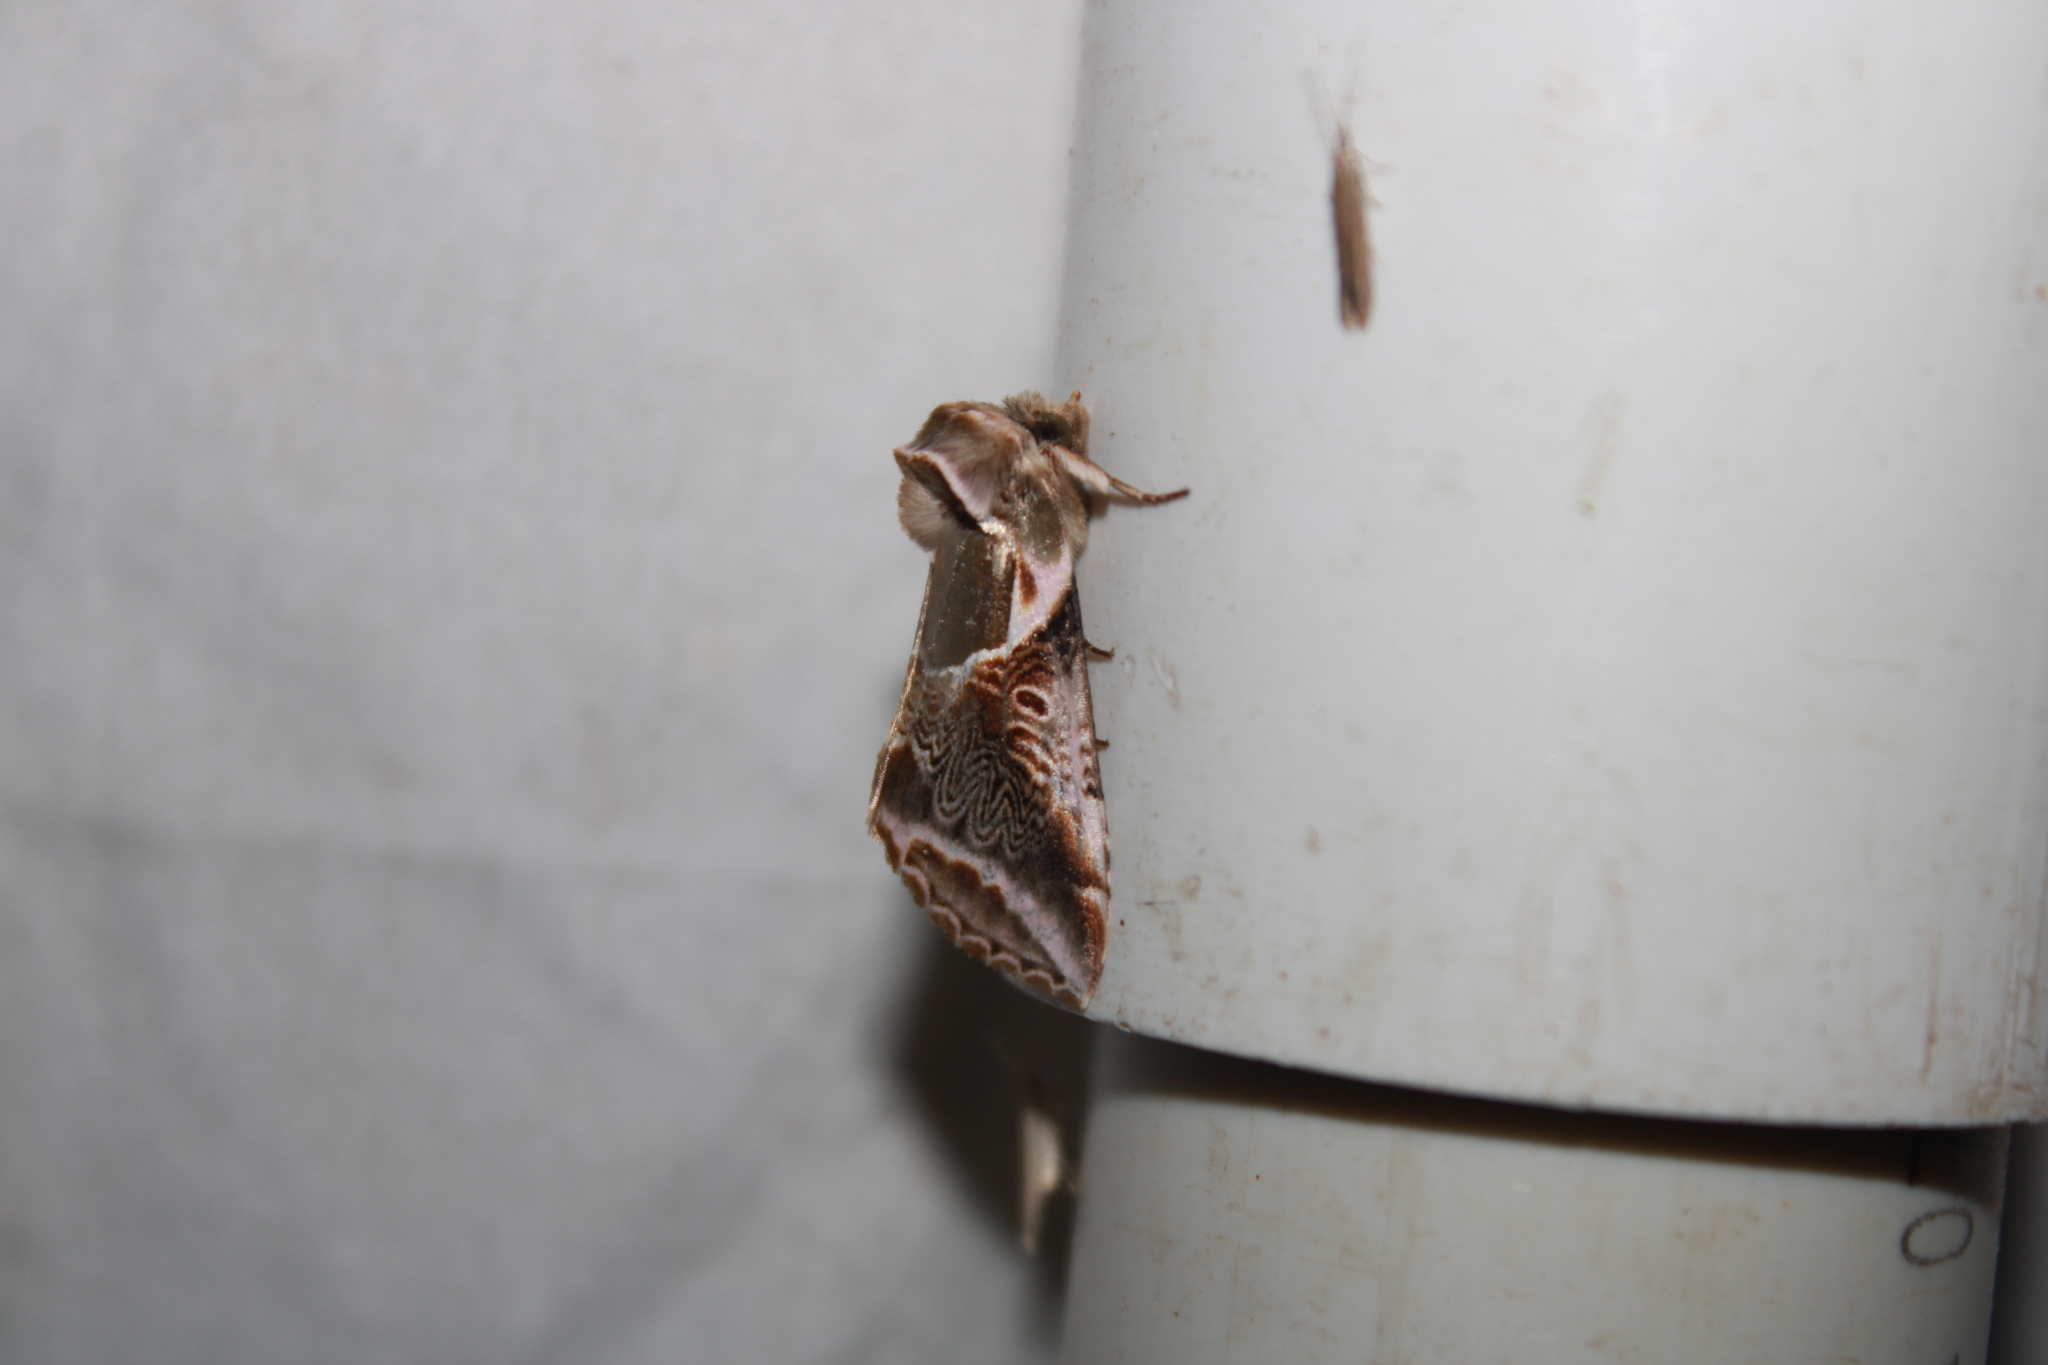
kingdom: Animalia
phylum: Arthropoda
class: Insecta
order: Lepidoptera
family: Drepanidae
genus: Habrosyne
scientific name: Habrosyne scripta
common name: Lettered habrosyne moth
